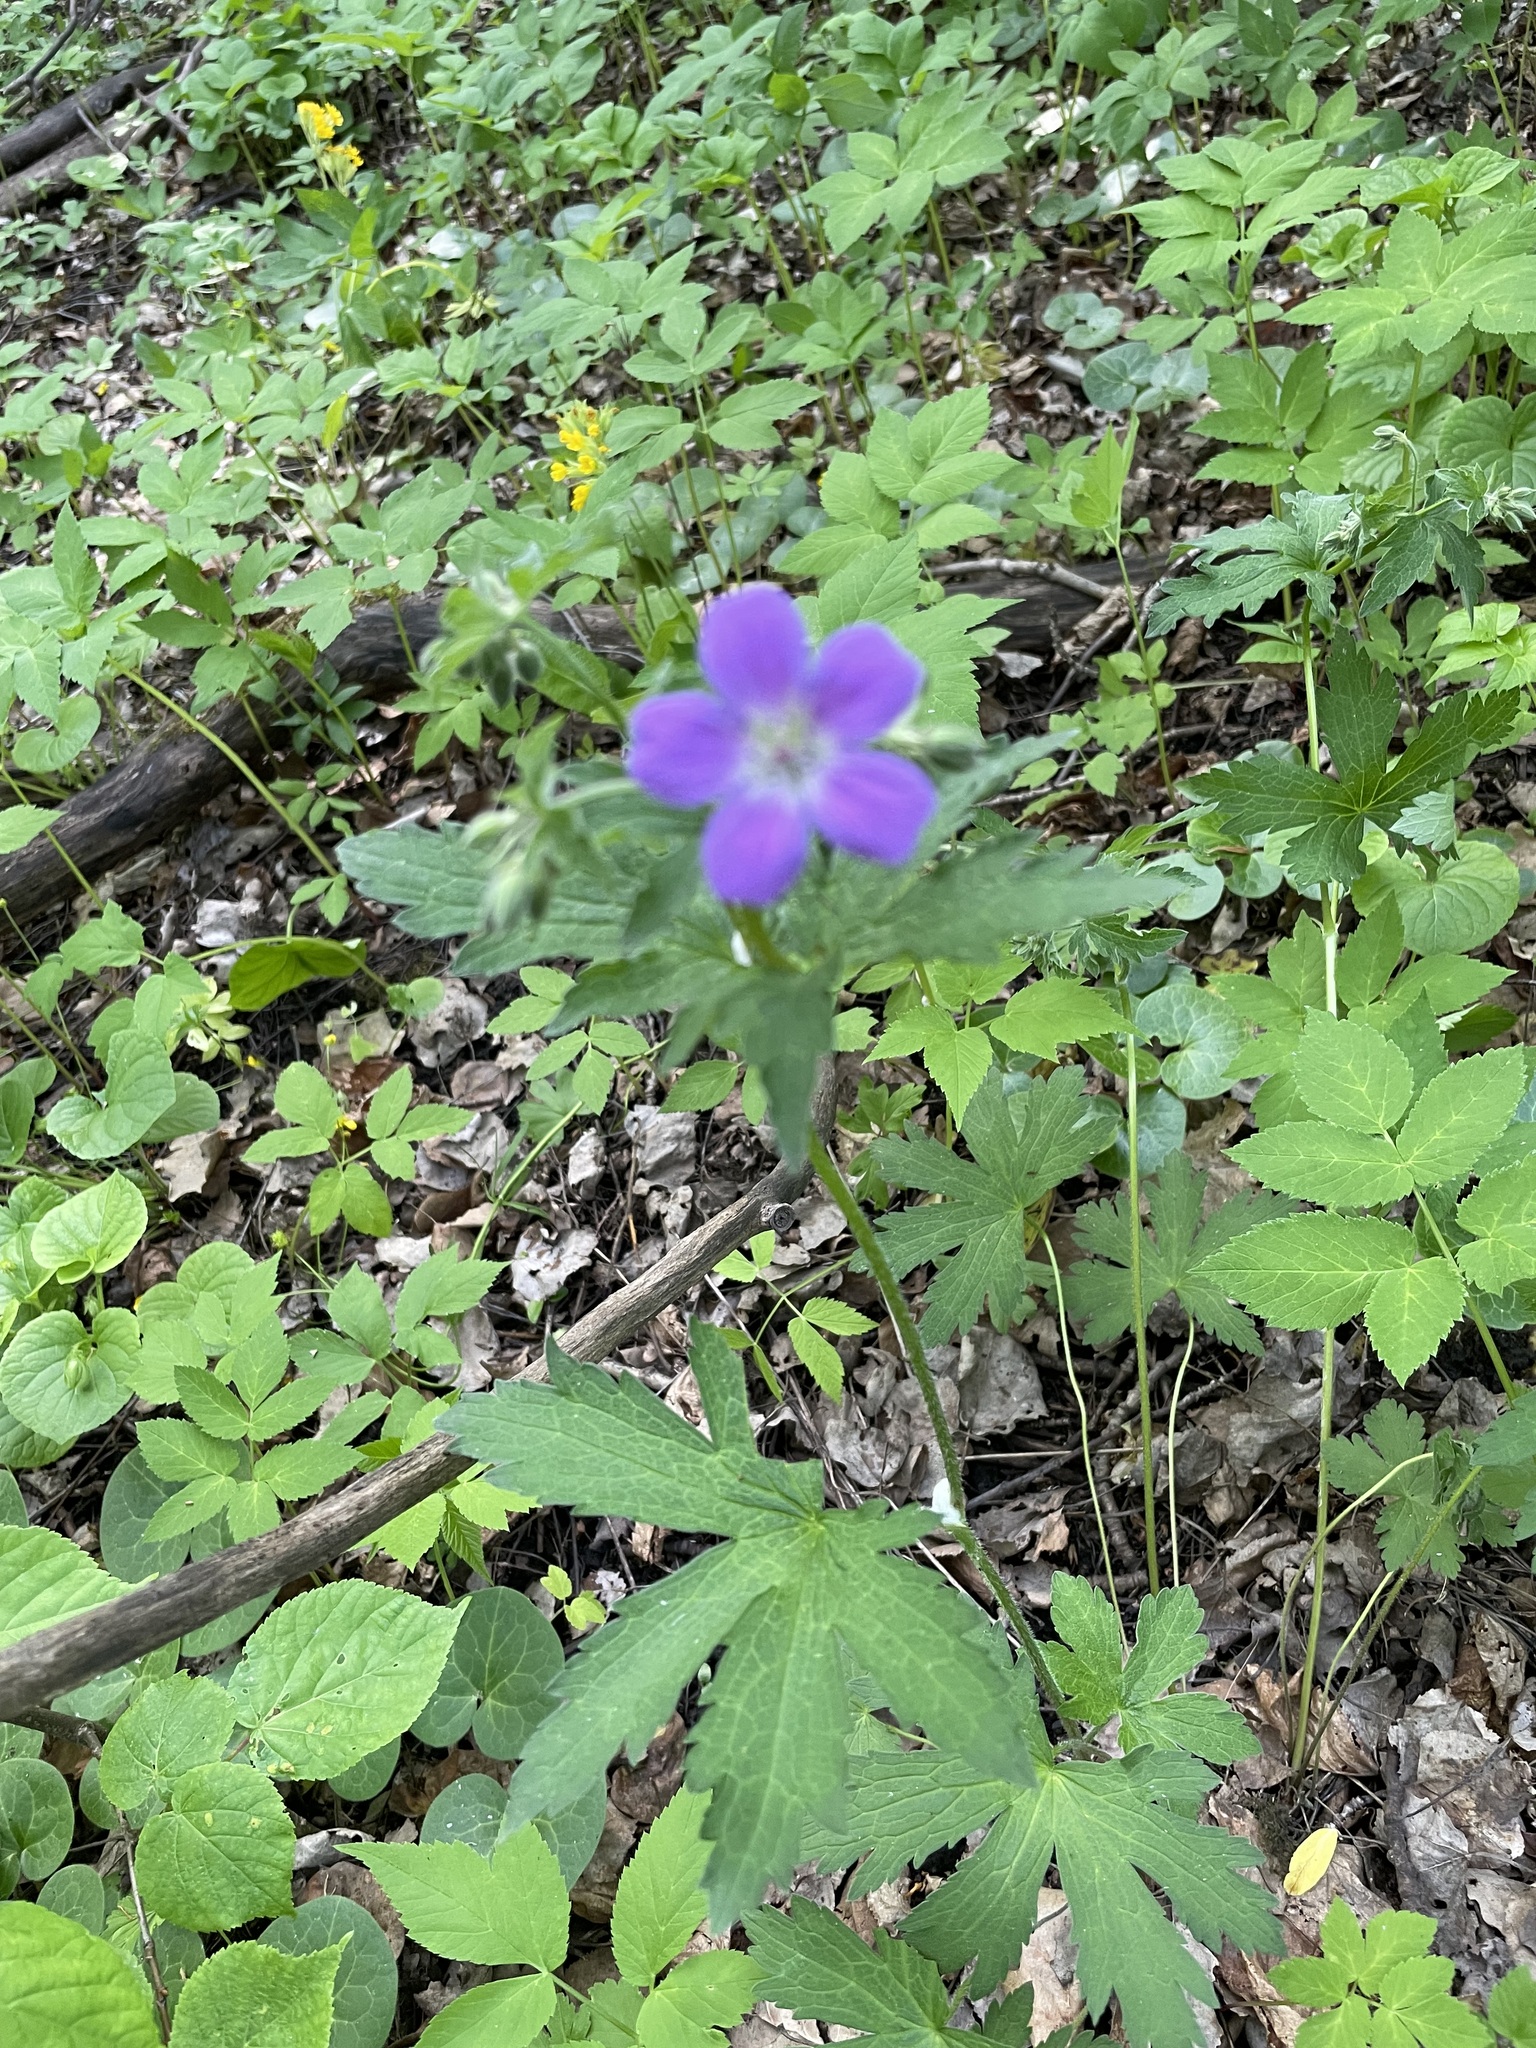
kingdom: Plantae
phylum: Tracheophyta
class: Magnoliopsida
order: Geraniales
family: Geraniaceae
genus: Geranium
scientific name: Geranium sylvaticum
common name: Wood crane's-bill
